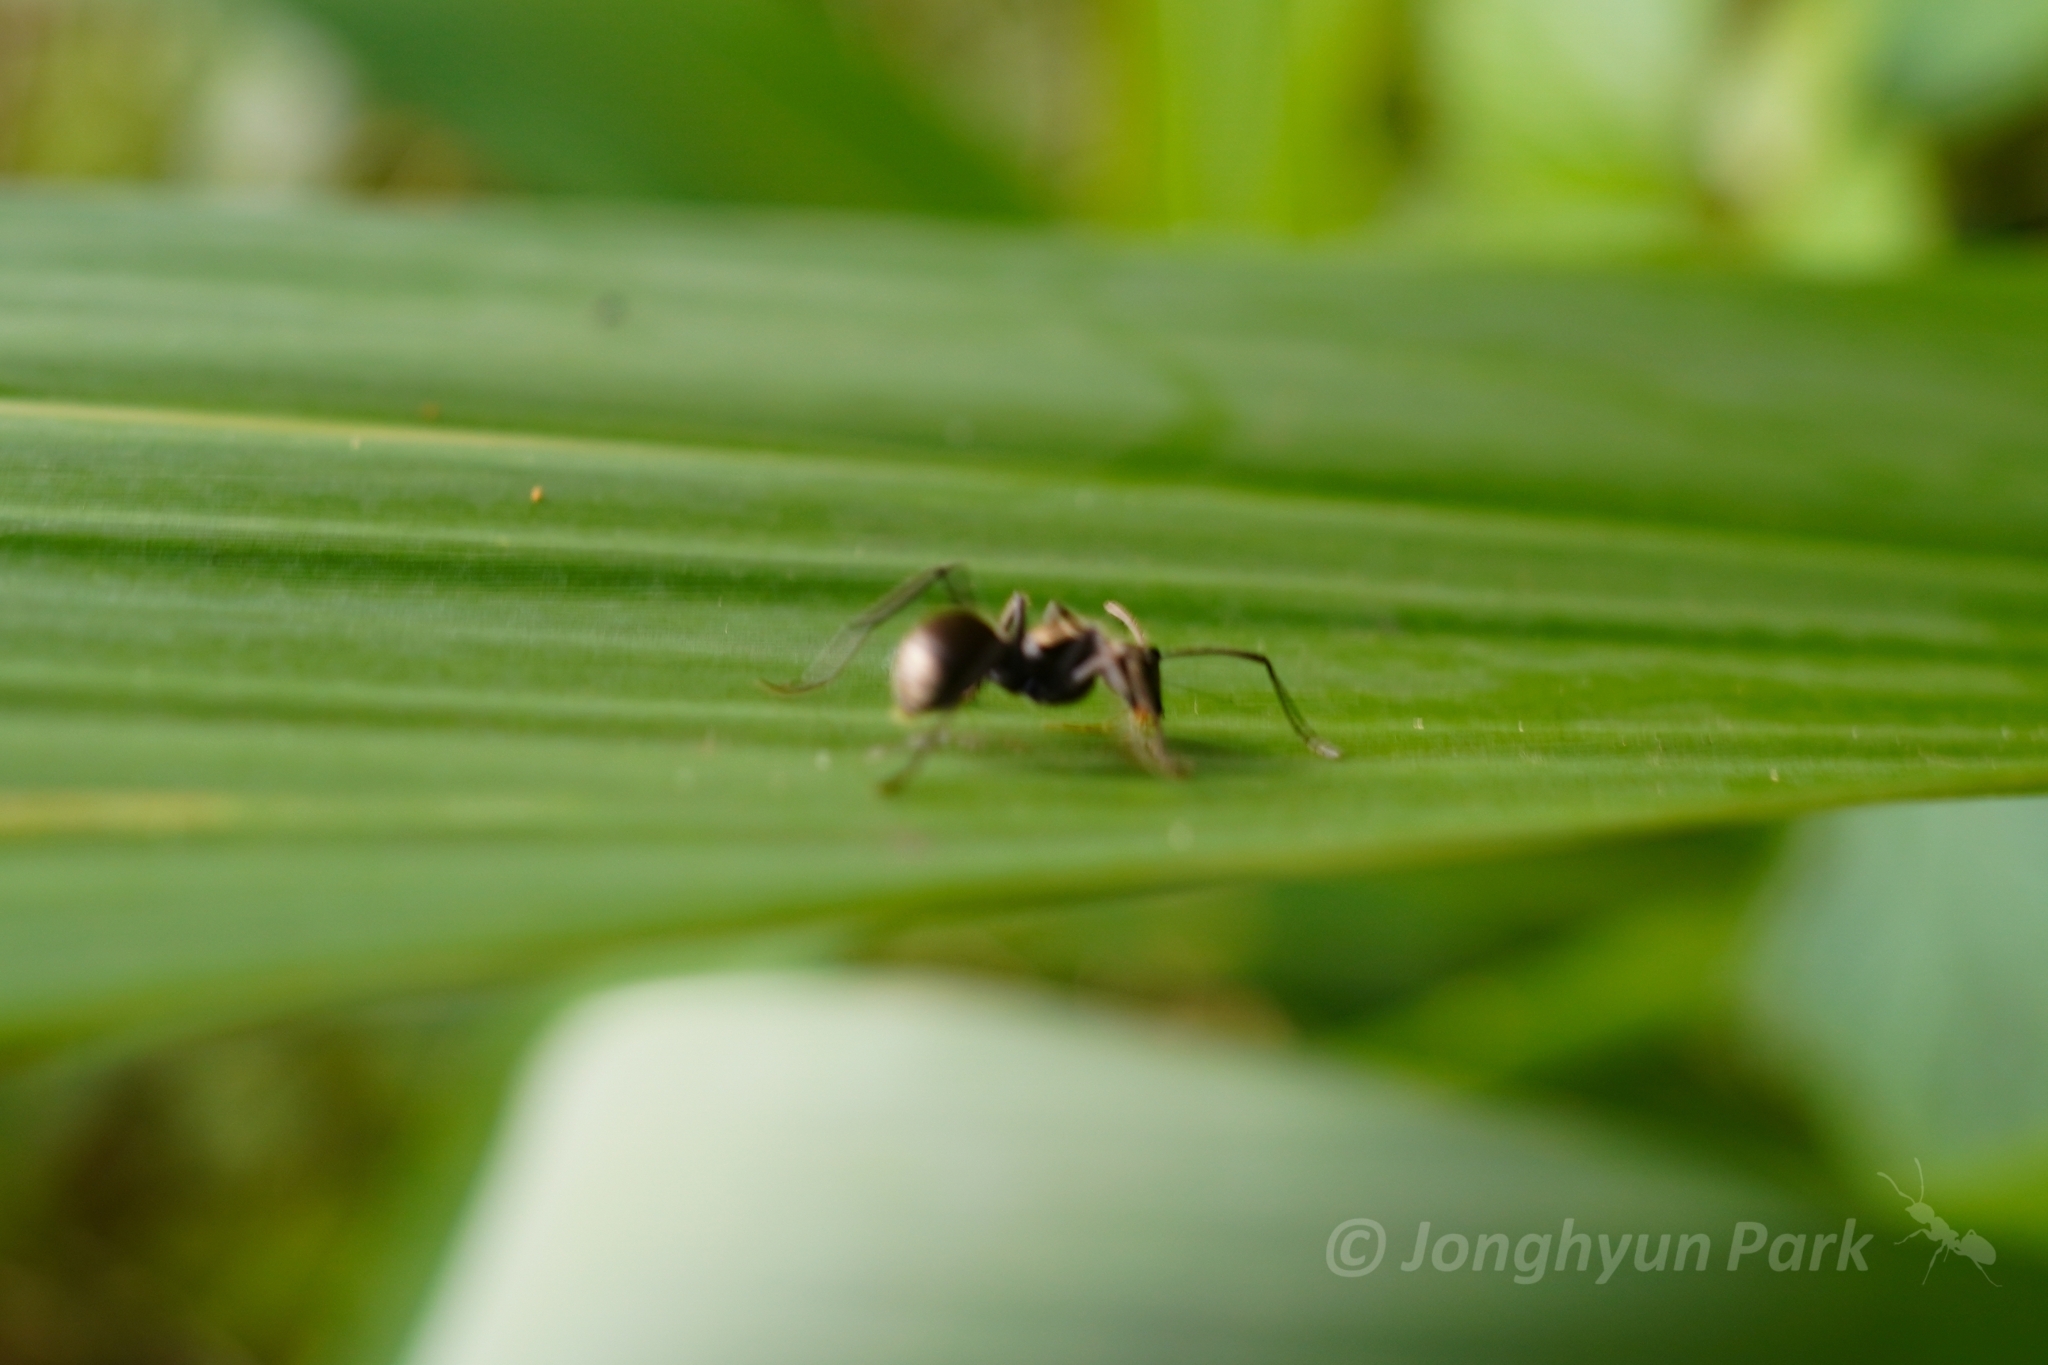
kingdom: Animalia
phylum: Arthropoda
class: Insecta
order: Hymenoptera
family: Formicidae
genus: Polyrhachis
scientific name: Polyrhachis proxima
